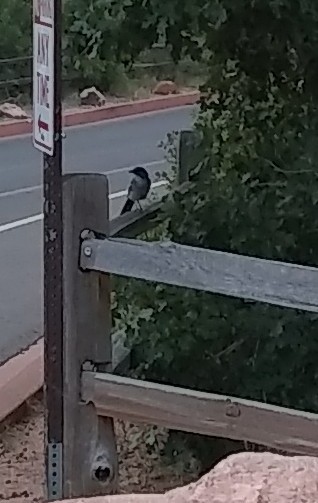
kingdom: Animalia
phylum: Chordata
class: Aves
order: Passeriformes
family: Corvidae
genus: Aphelocoma
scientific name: Aphelocoma woodhouseii
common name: Woodhouse's scrub-jay
